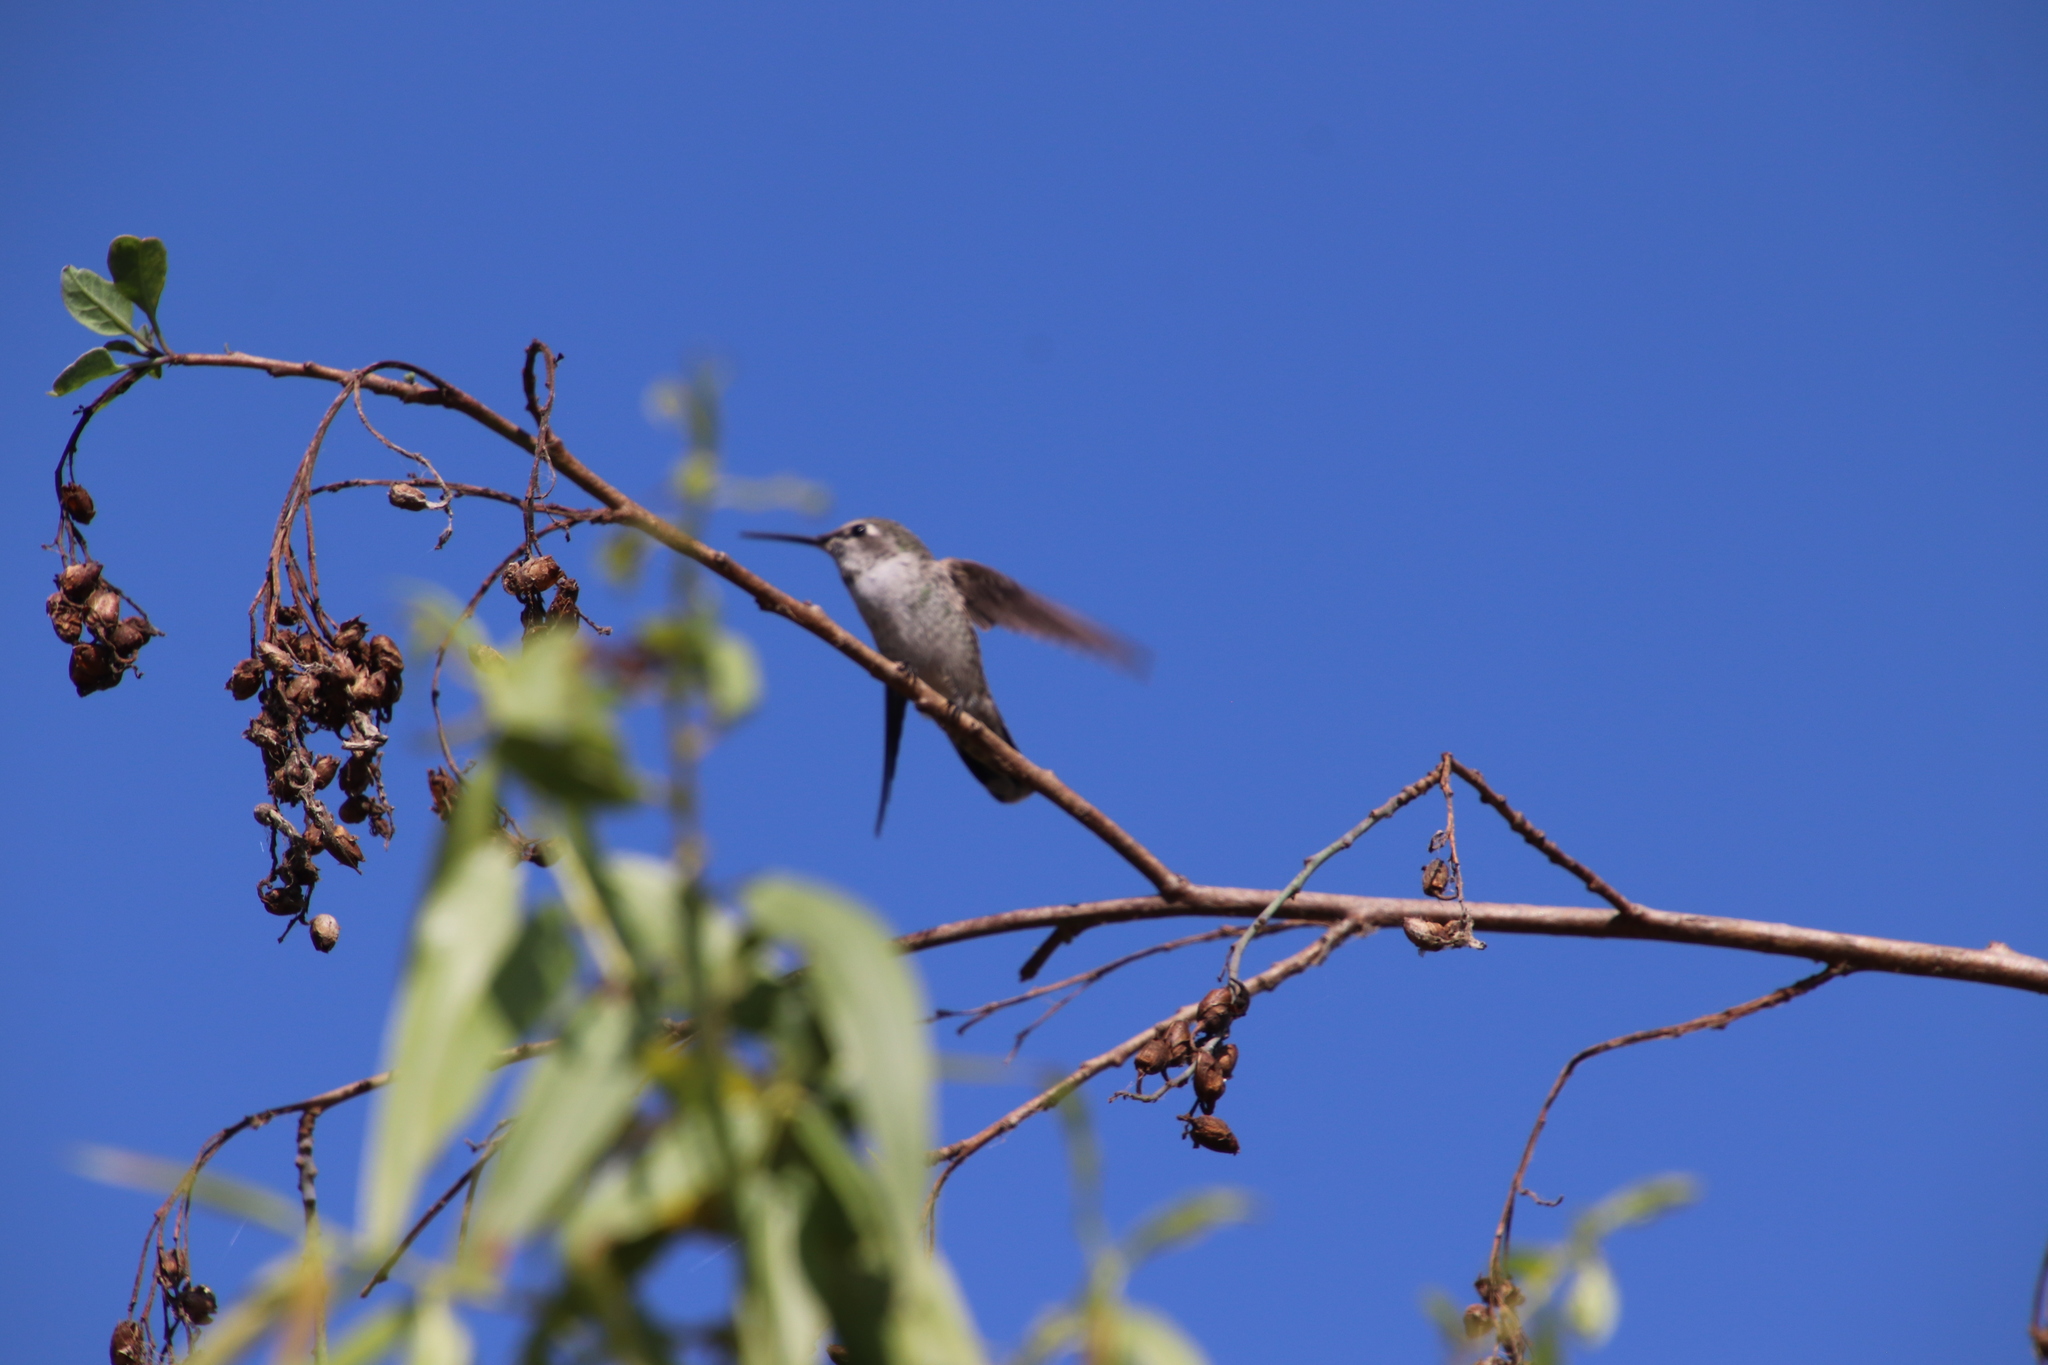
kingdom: Animalia
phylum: Chordata
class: Aves
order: Apodiformes
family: Trochilidae
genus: Calypte
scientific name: Calypte anna
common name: Anna's hummingbird
